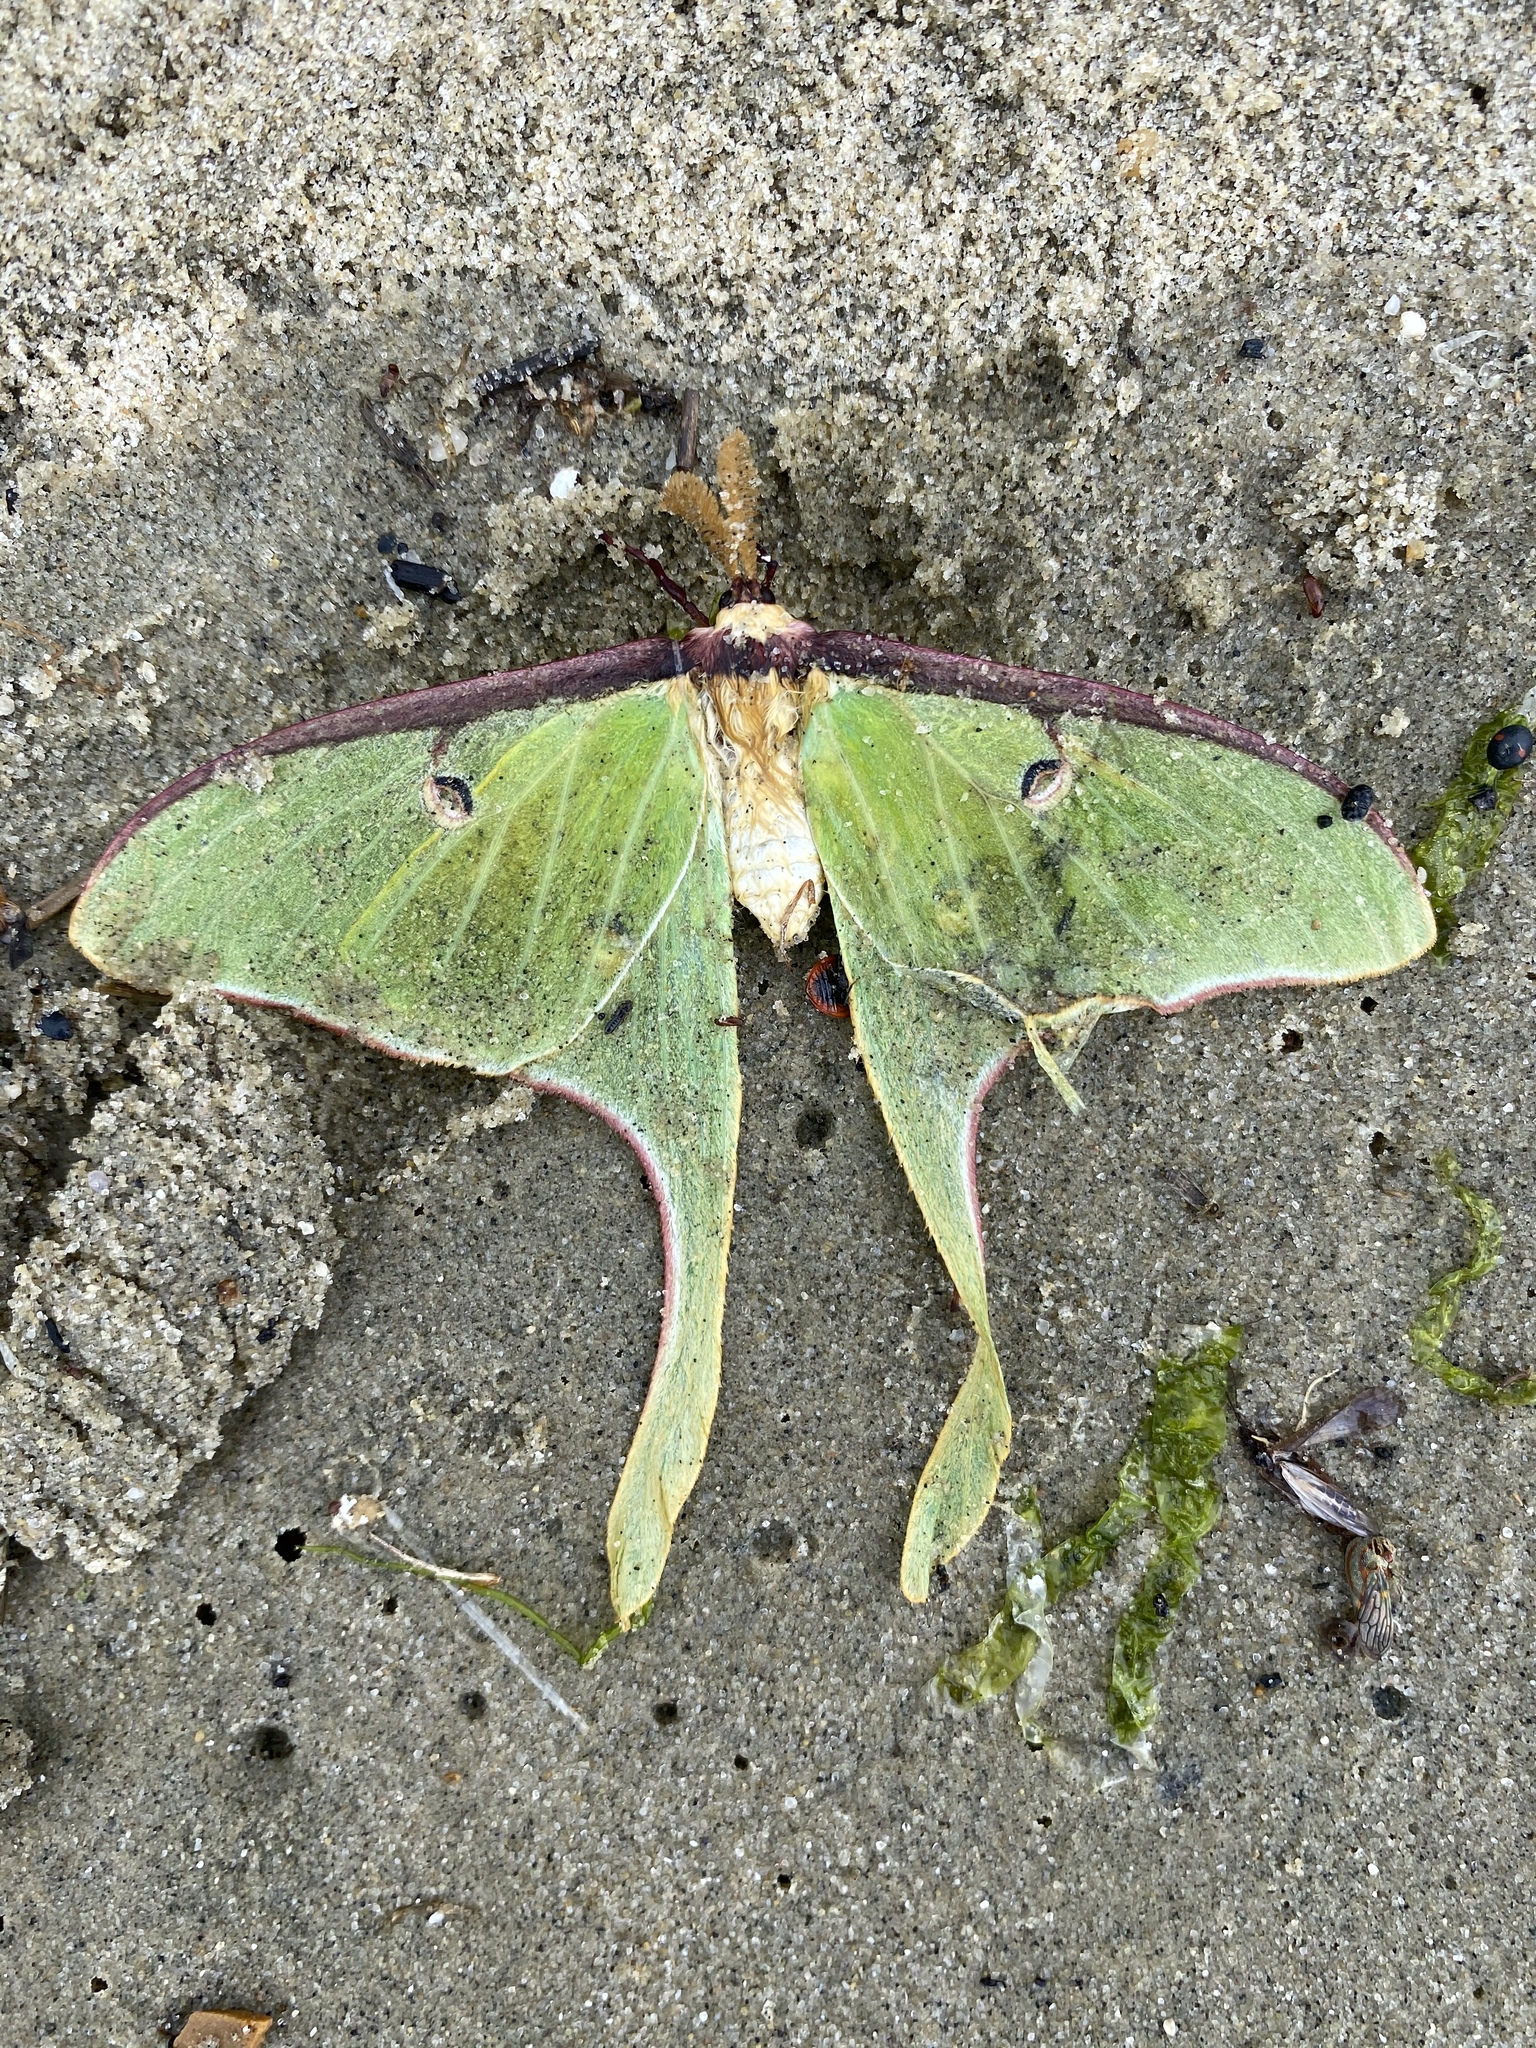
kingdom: Animalia
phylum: Arthropoda
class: Insecta
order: Lepidoptera
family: Saturniidae
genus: Actias
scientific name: Actias luna
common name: Luna moth
